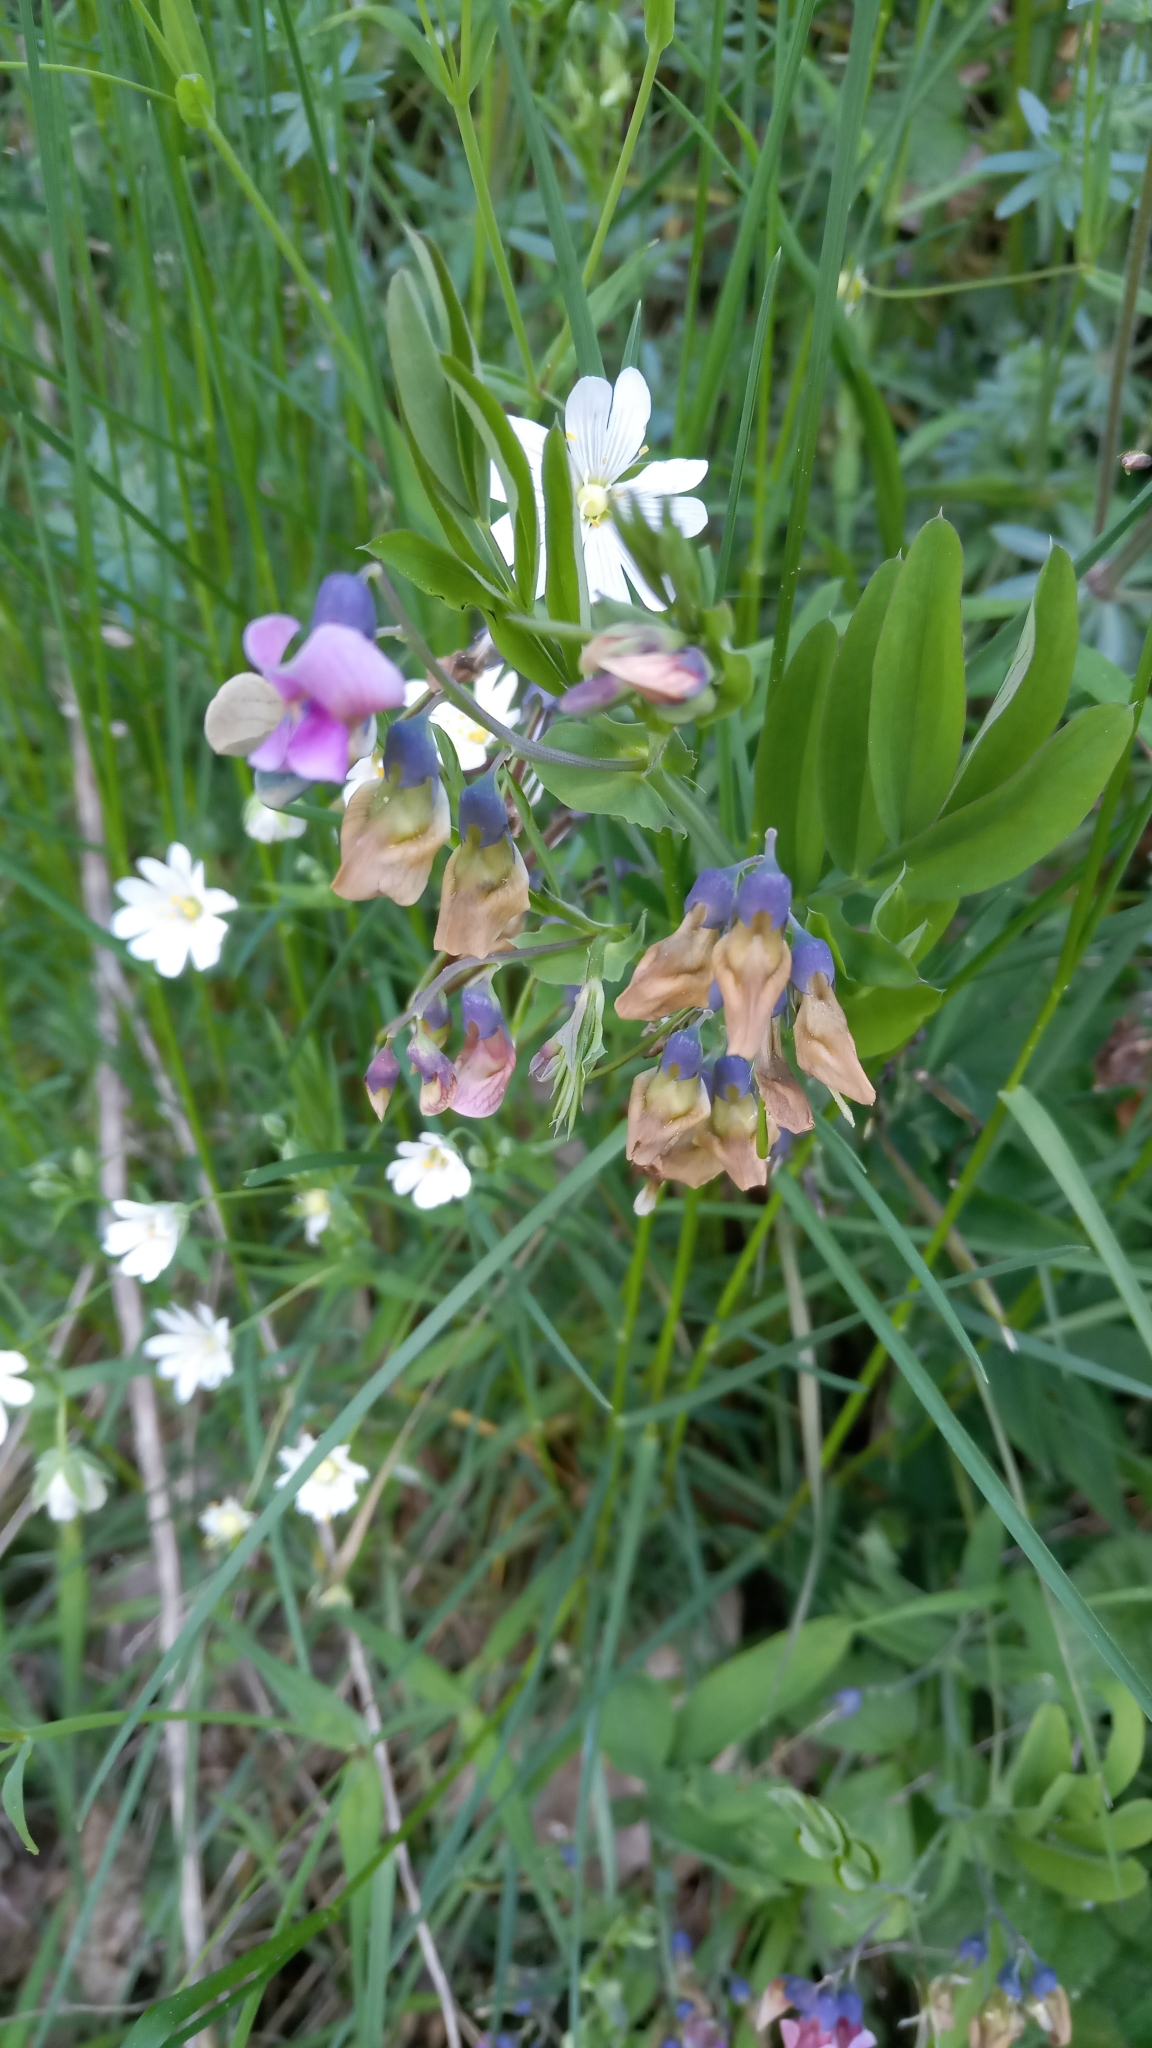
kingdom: Plantae
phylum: Tracheophyta
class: Magnoliopsida
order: Fabales
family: Fabaceae
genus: Lathyrus
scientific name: Lathyrus linifolius
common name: Bitter-vetch
